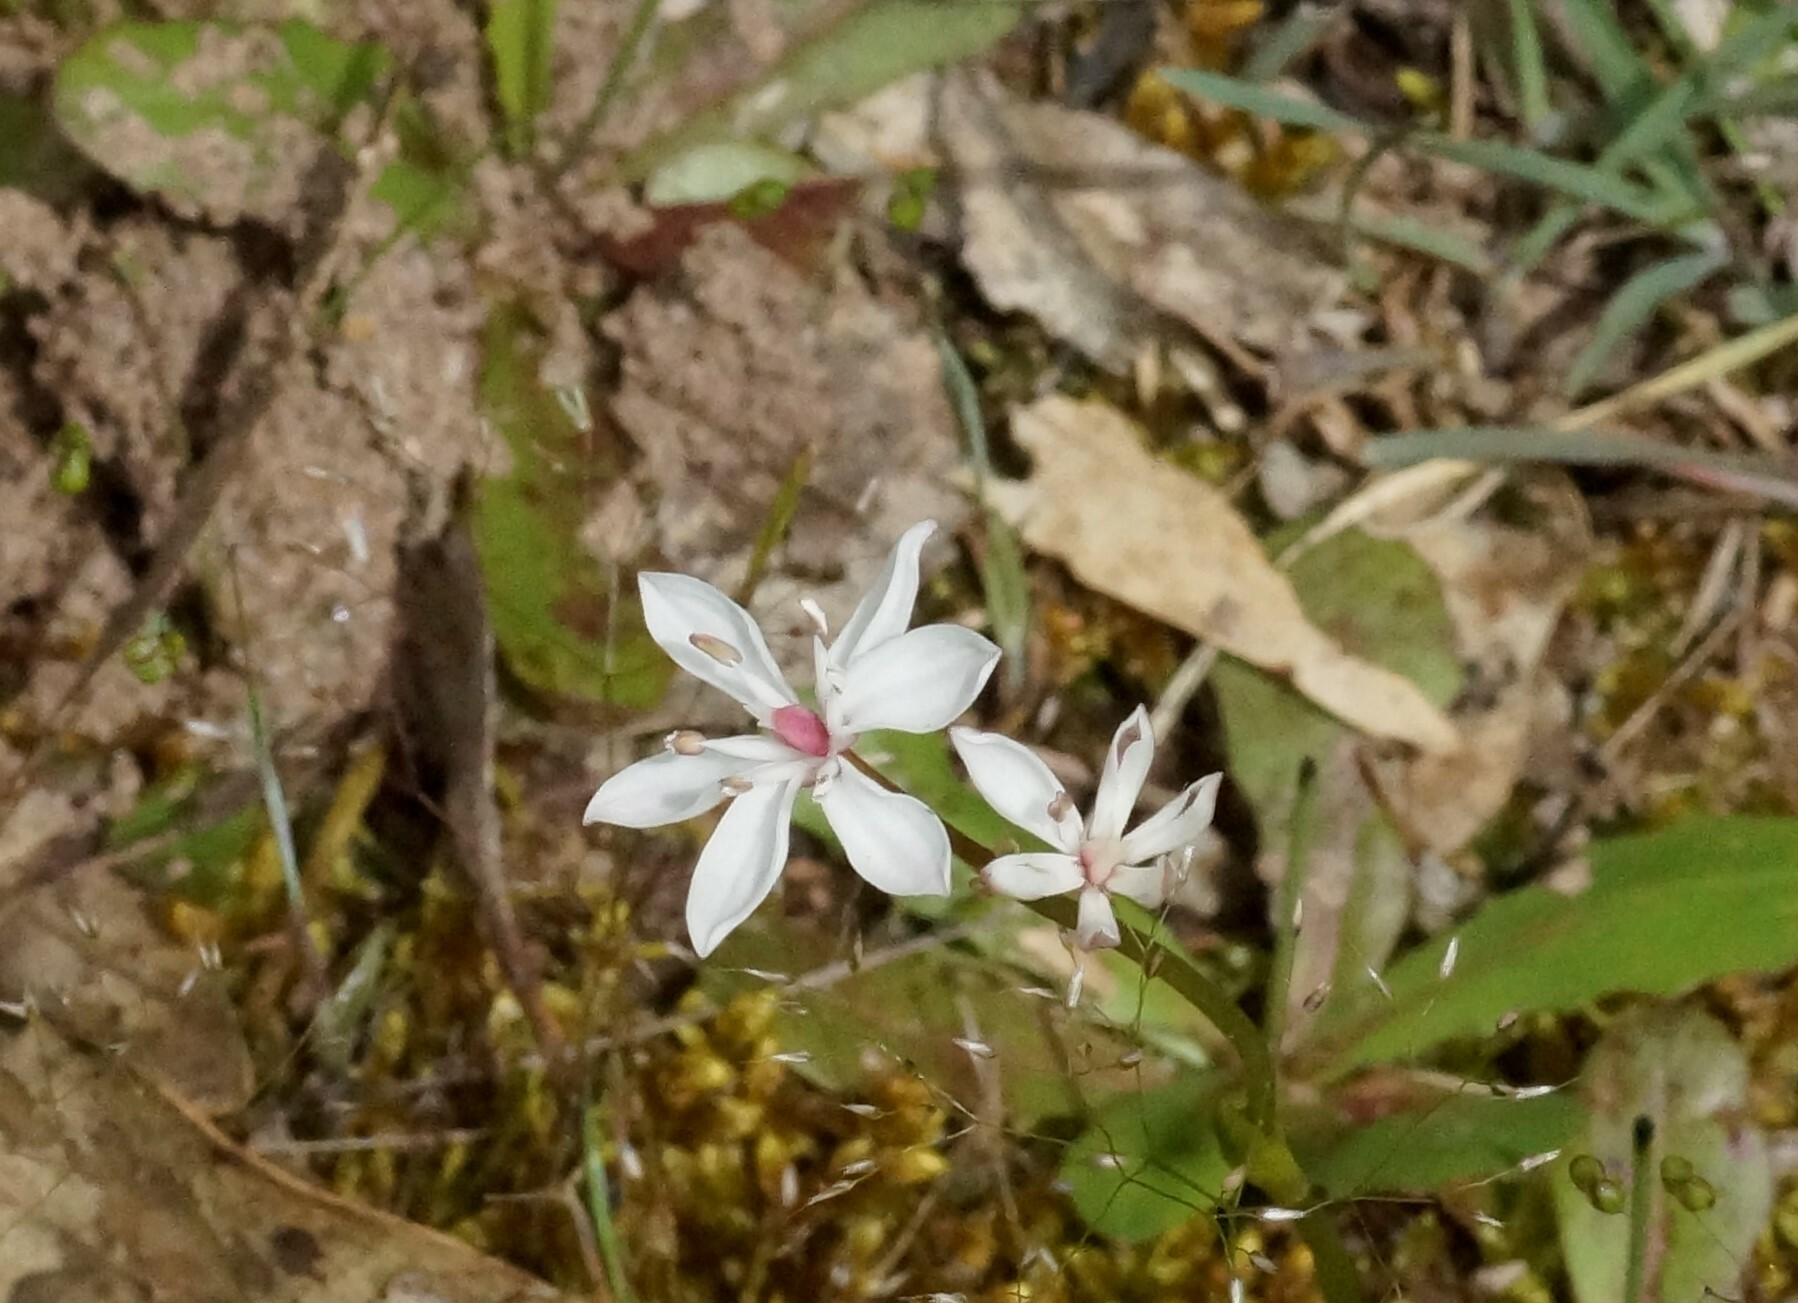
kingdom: Plantae
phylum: Tracheophyta
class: Liliopsida
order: Liliales
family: Colchicaceae
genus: Burchardia
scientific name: Burchardia umbellata
